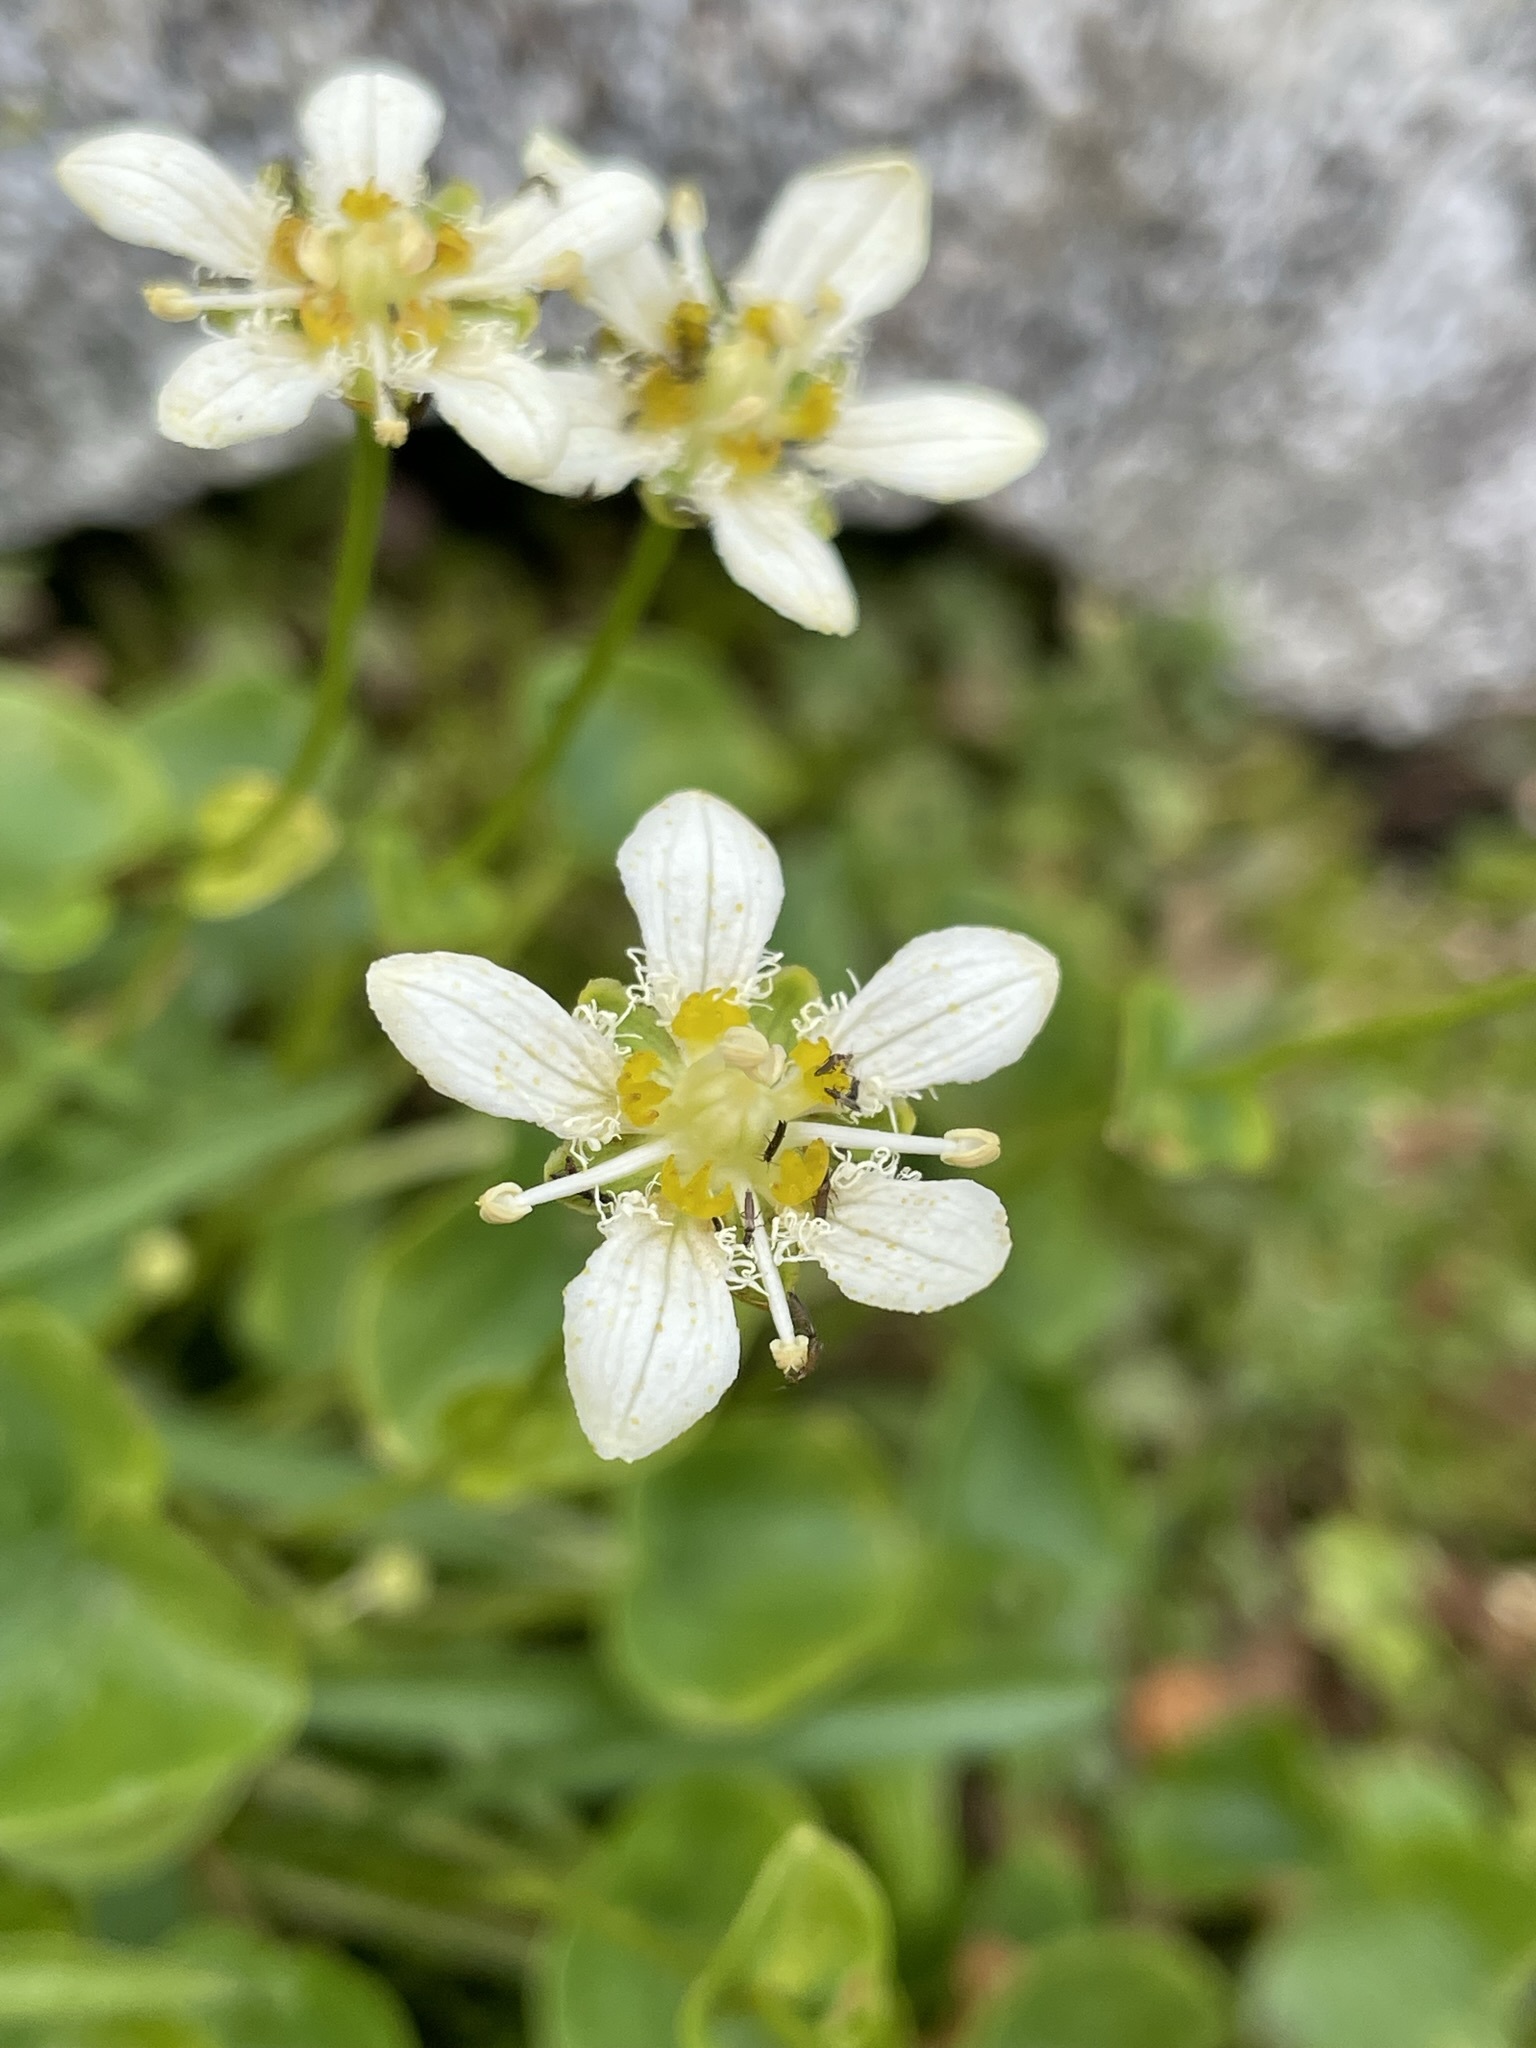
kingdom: Plantae
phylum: Tracheophyta
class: Magnoliopsida
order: Celastrales
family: Parnassiaceae
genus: Parnassia
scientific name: Parnassia fimbriata
